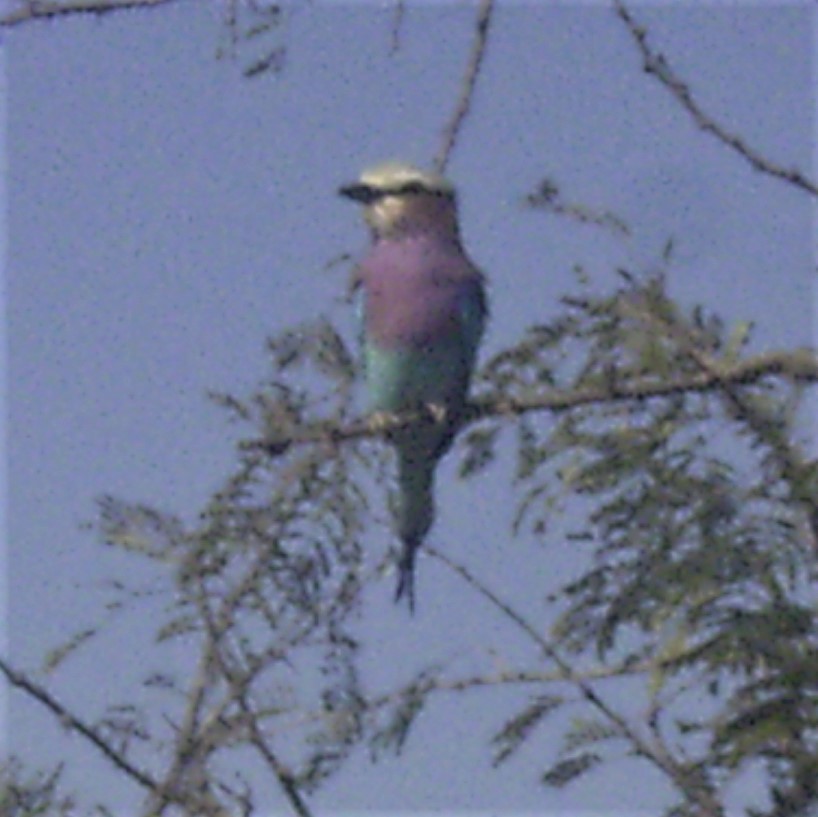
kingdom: Animalia
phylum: Chordata
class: Aves
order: Coraciiformes
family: Coraciidae
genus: Coracias
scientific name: Coracias caudatus
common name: Lilac-breasted roller
